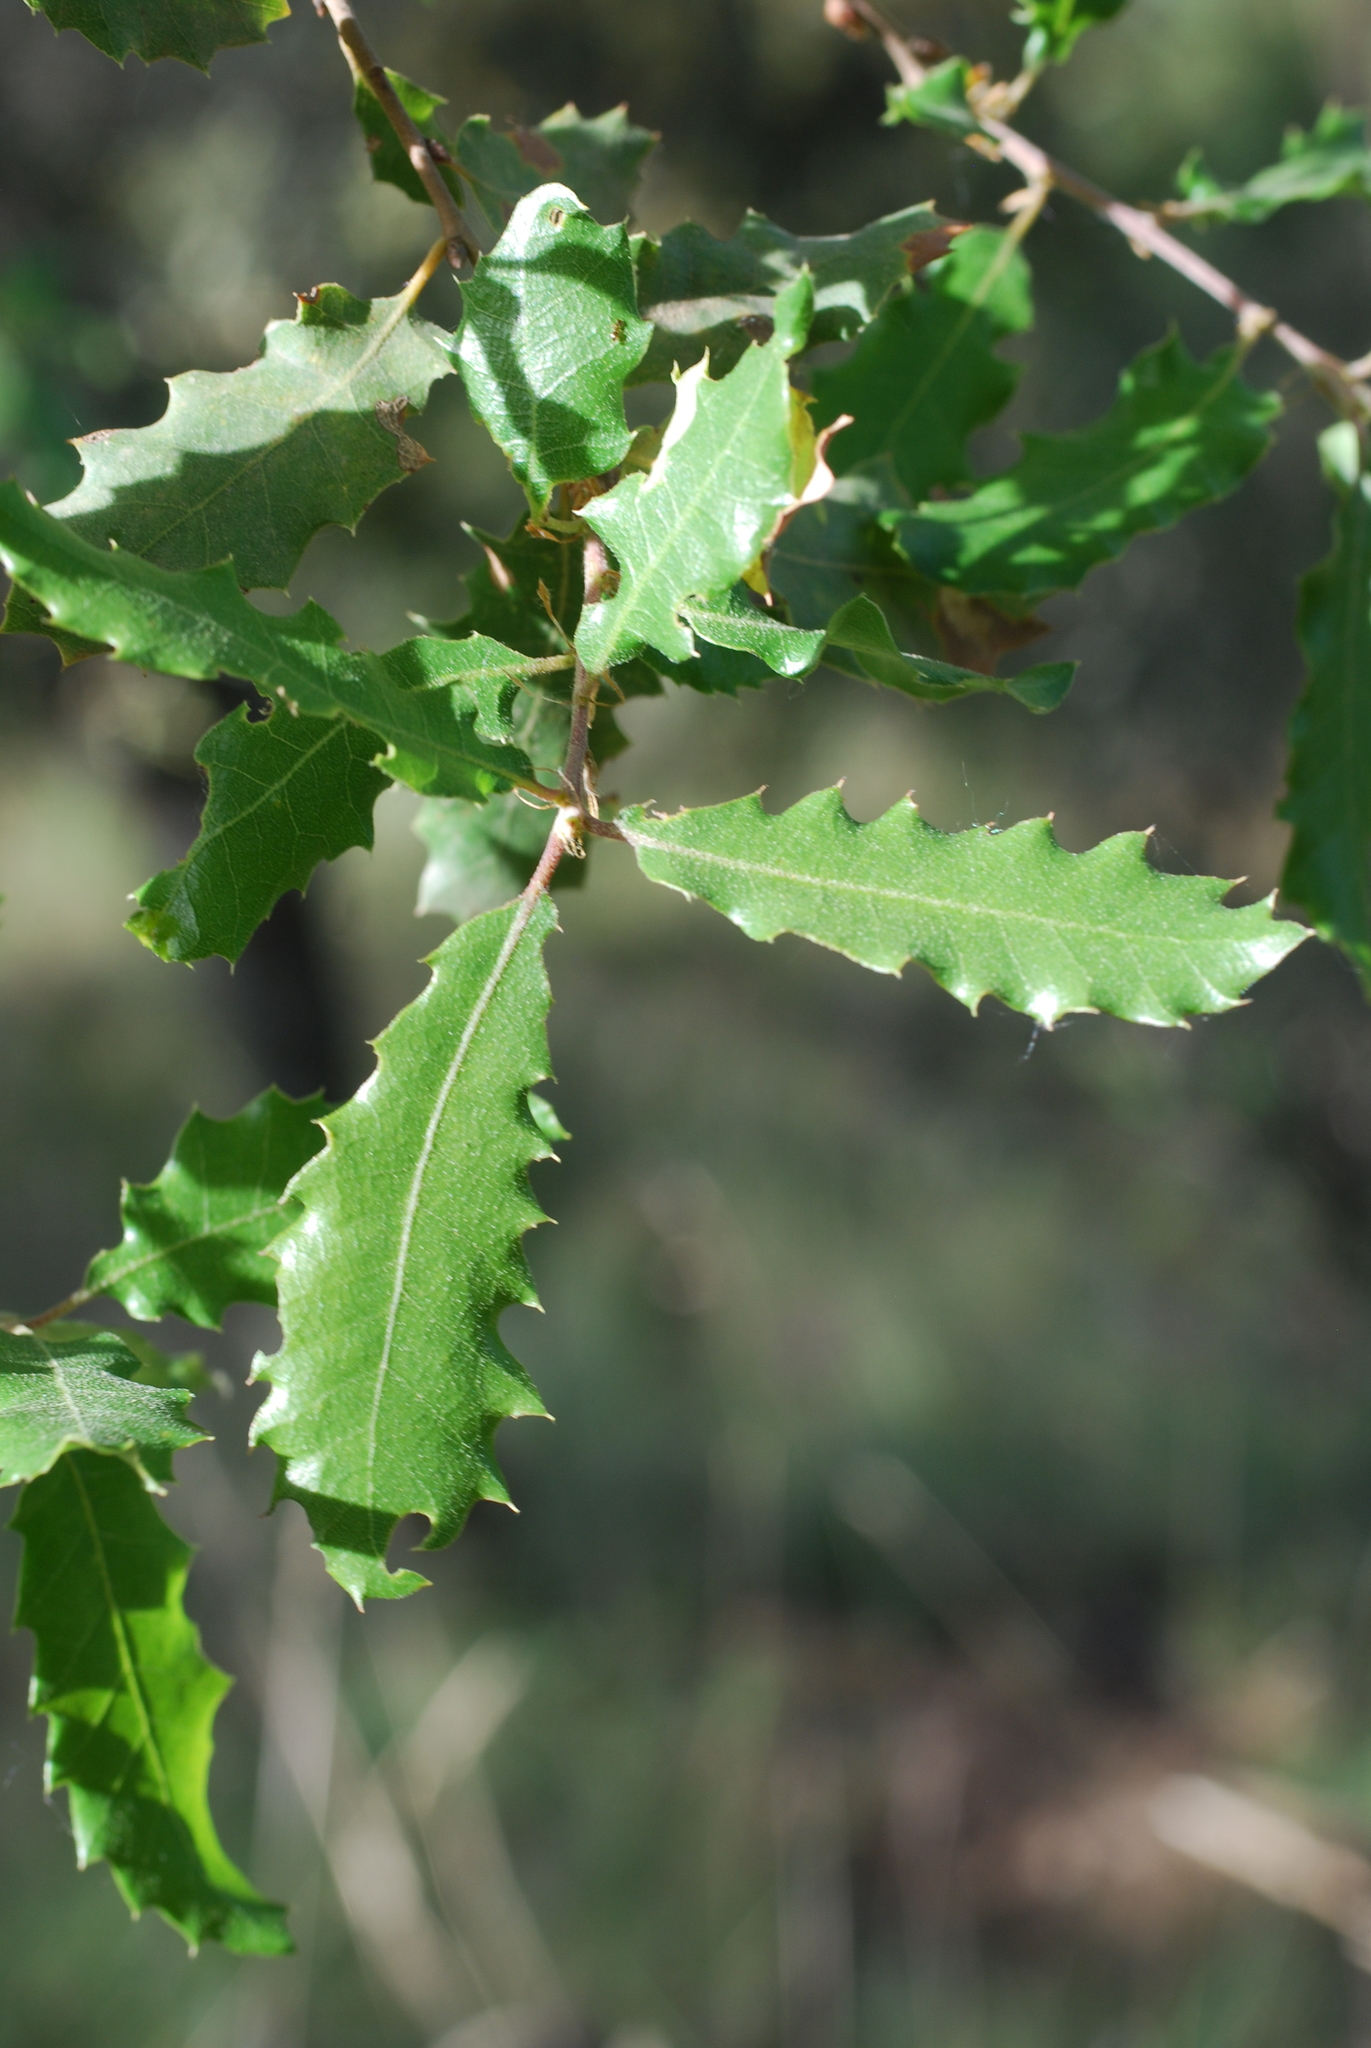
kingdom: Plantae
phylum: Tracheophyta
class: Magnoliopsida
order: Fagales
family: Fagaceae
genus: Quercus
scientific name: Quercus faginea
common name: Gall oak tree
